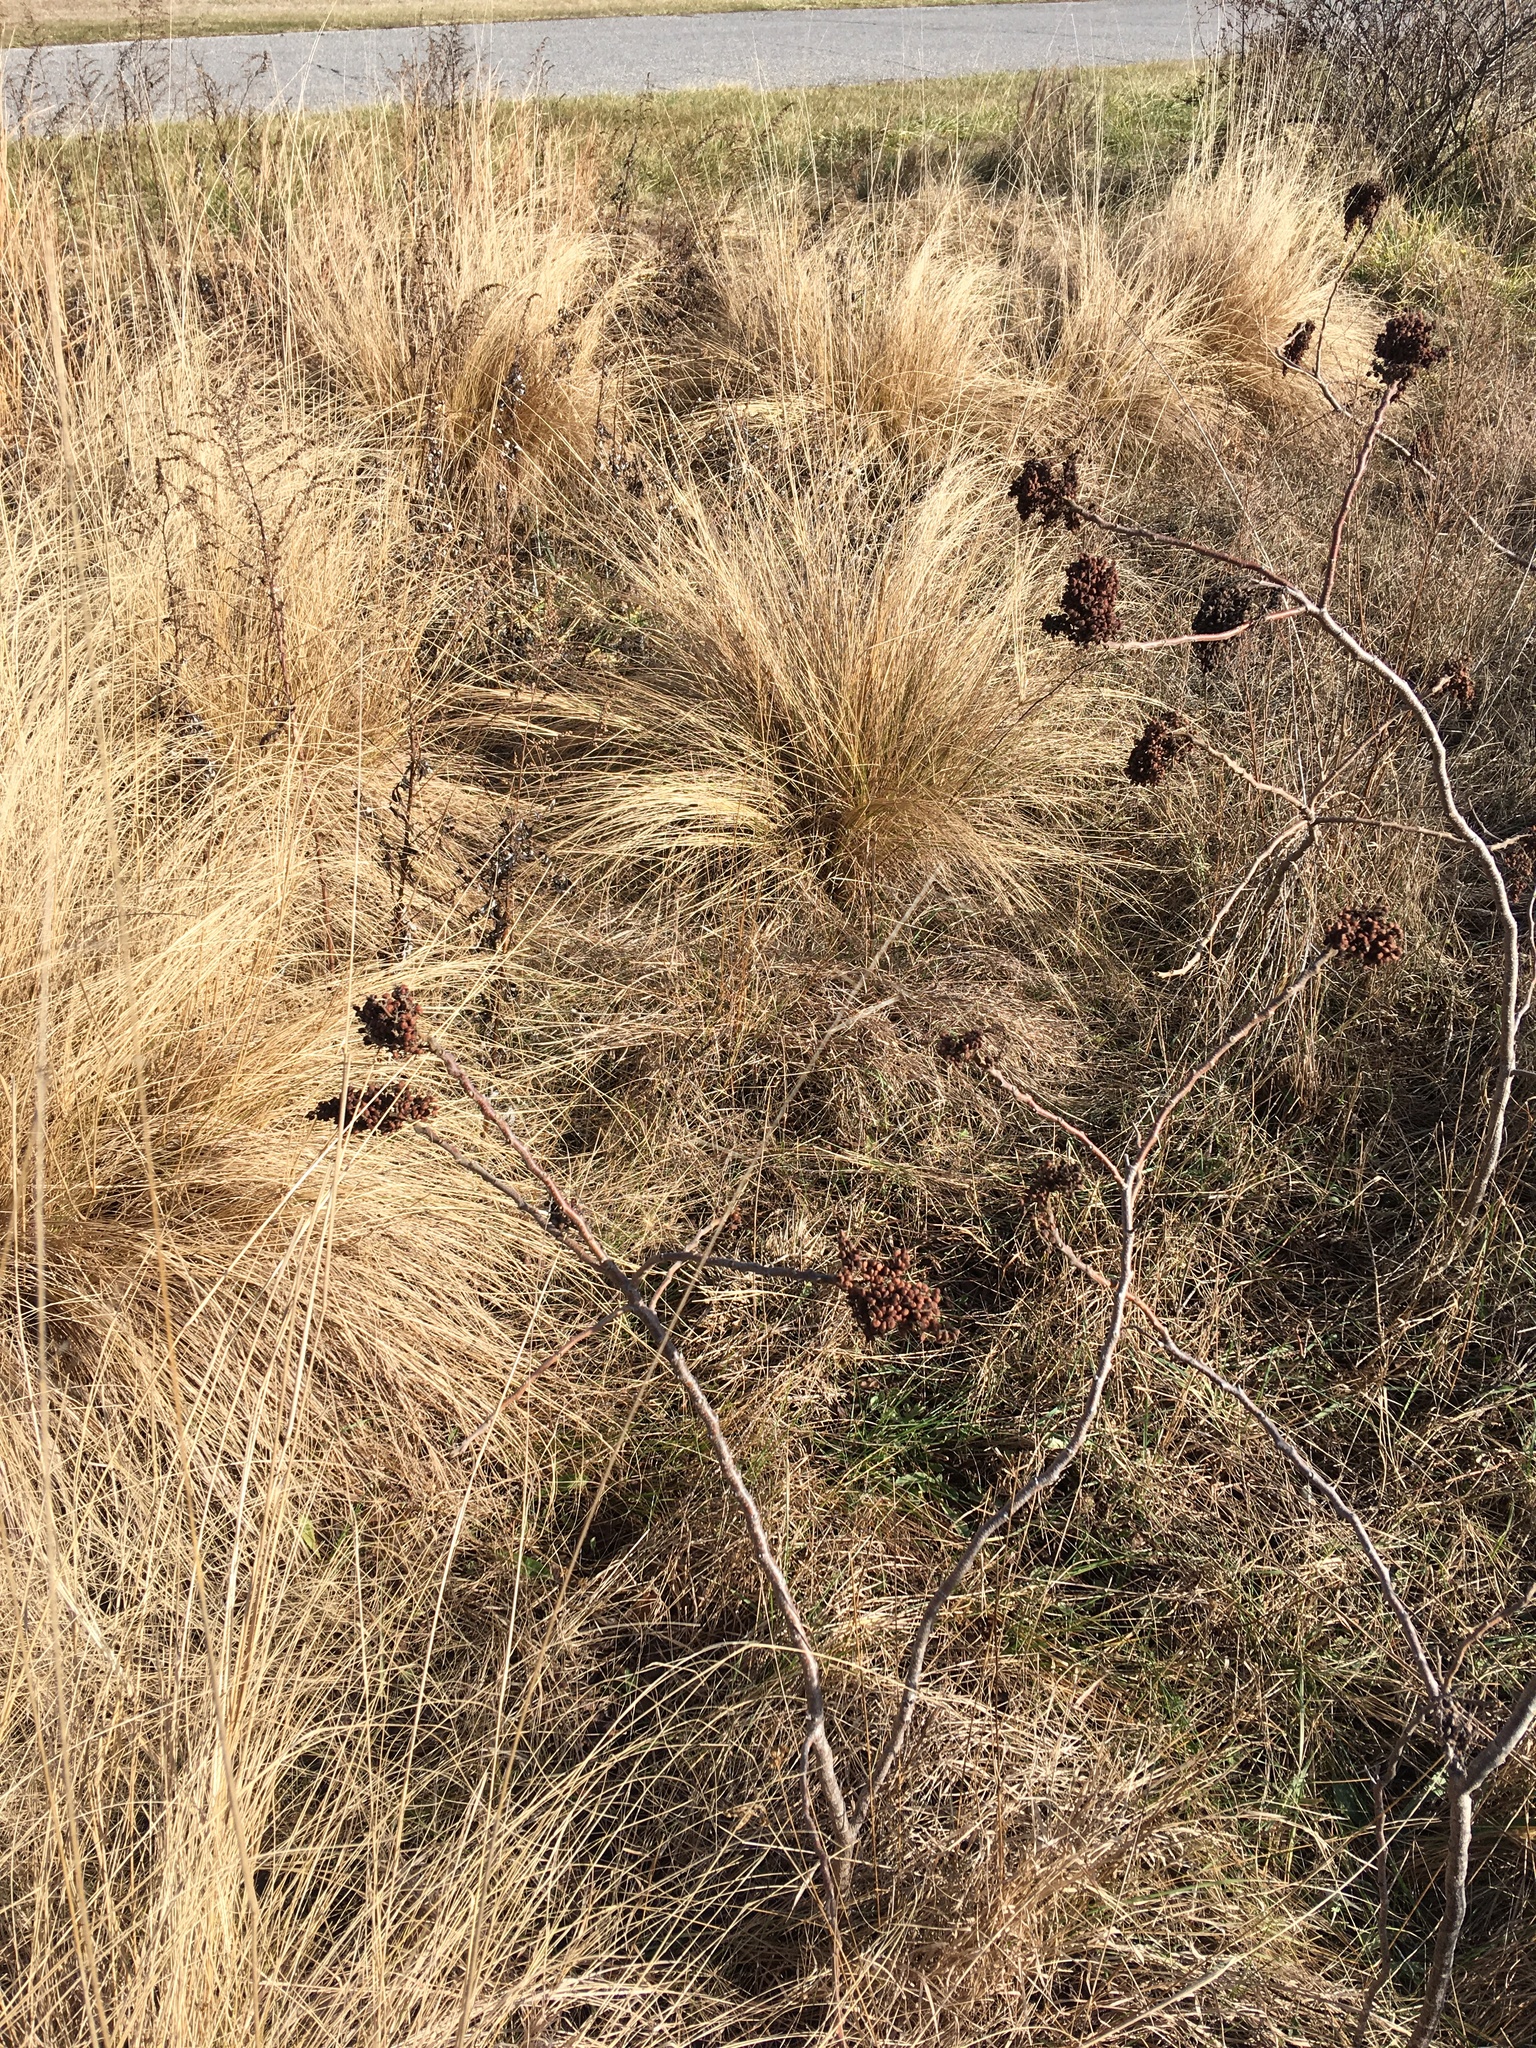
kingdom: Plantae
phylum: Tracheophyta
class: Magnoliopsida
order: Sapindales
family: Anacardiaceae
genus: Rhus
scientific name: Rhus copallina
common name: Shining sumac
